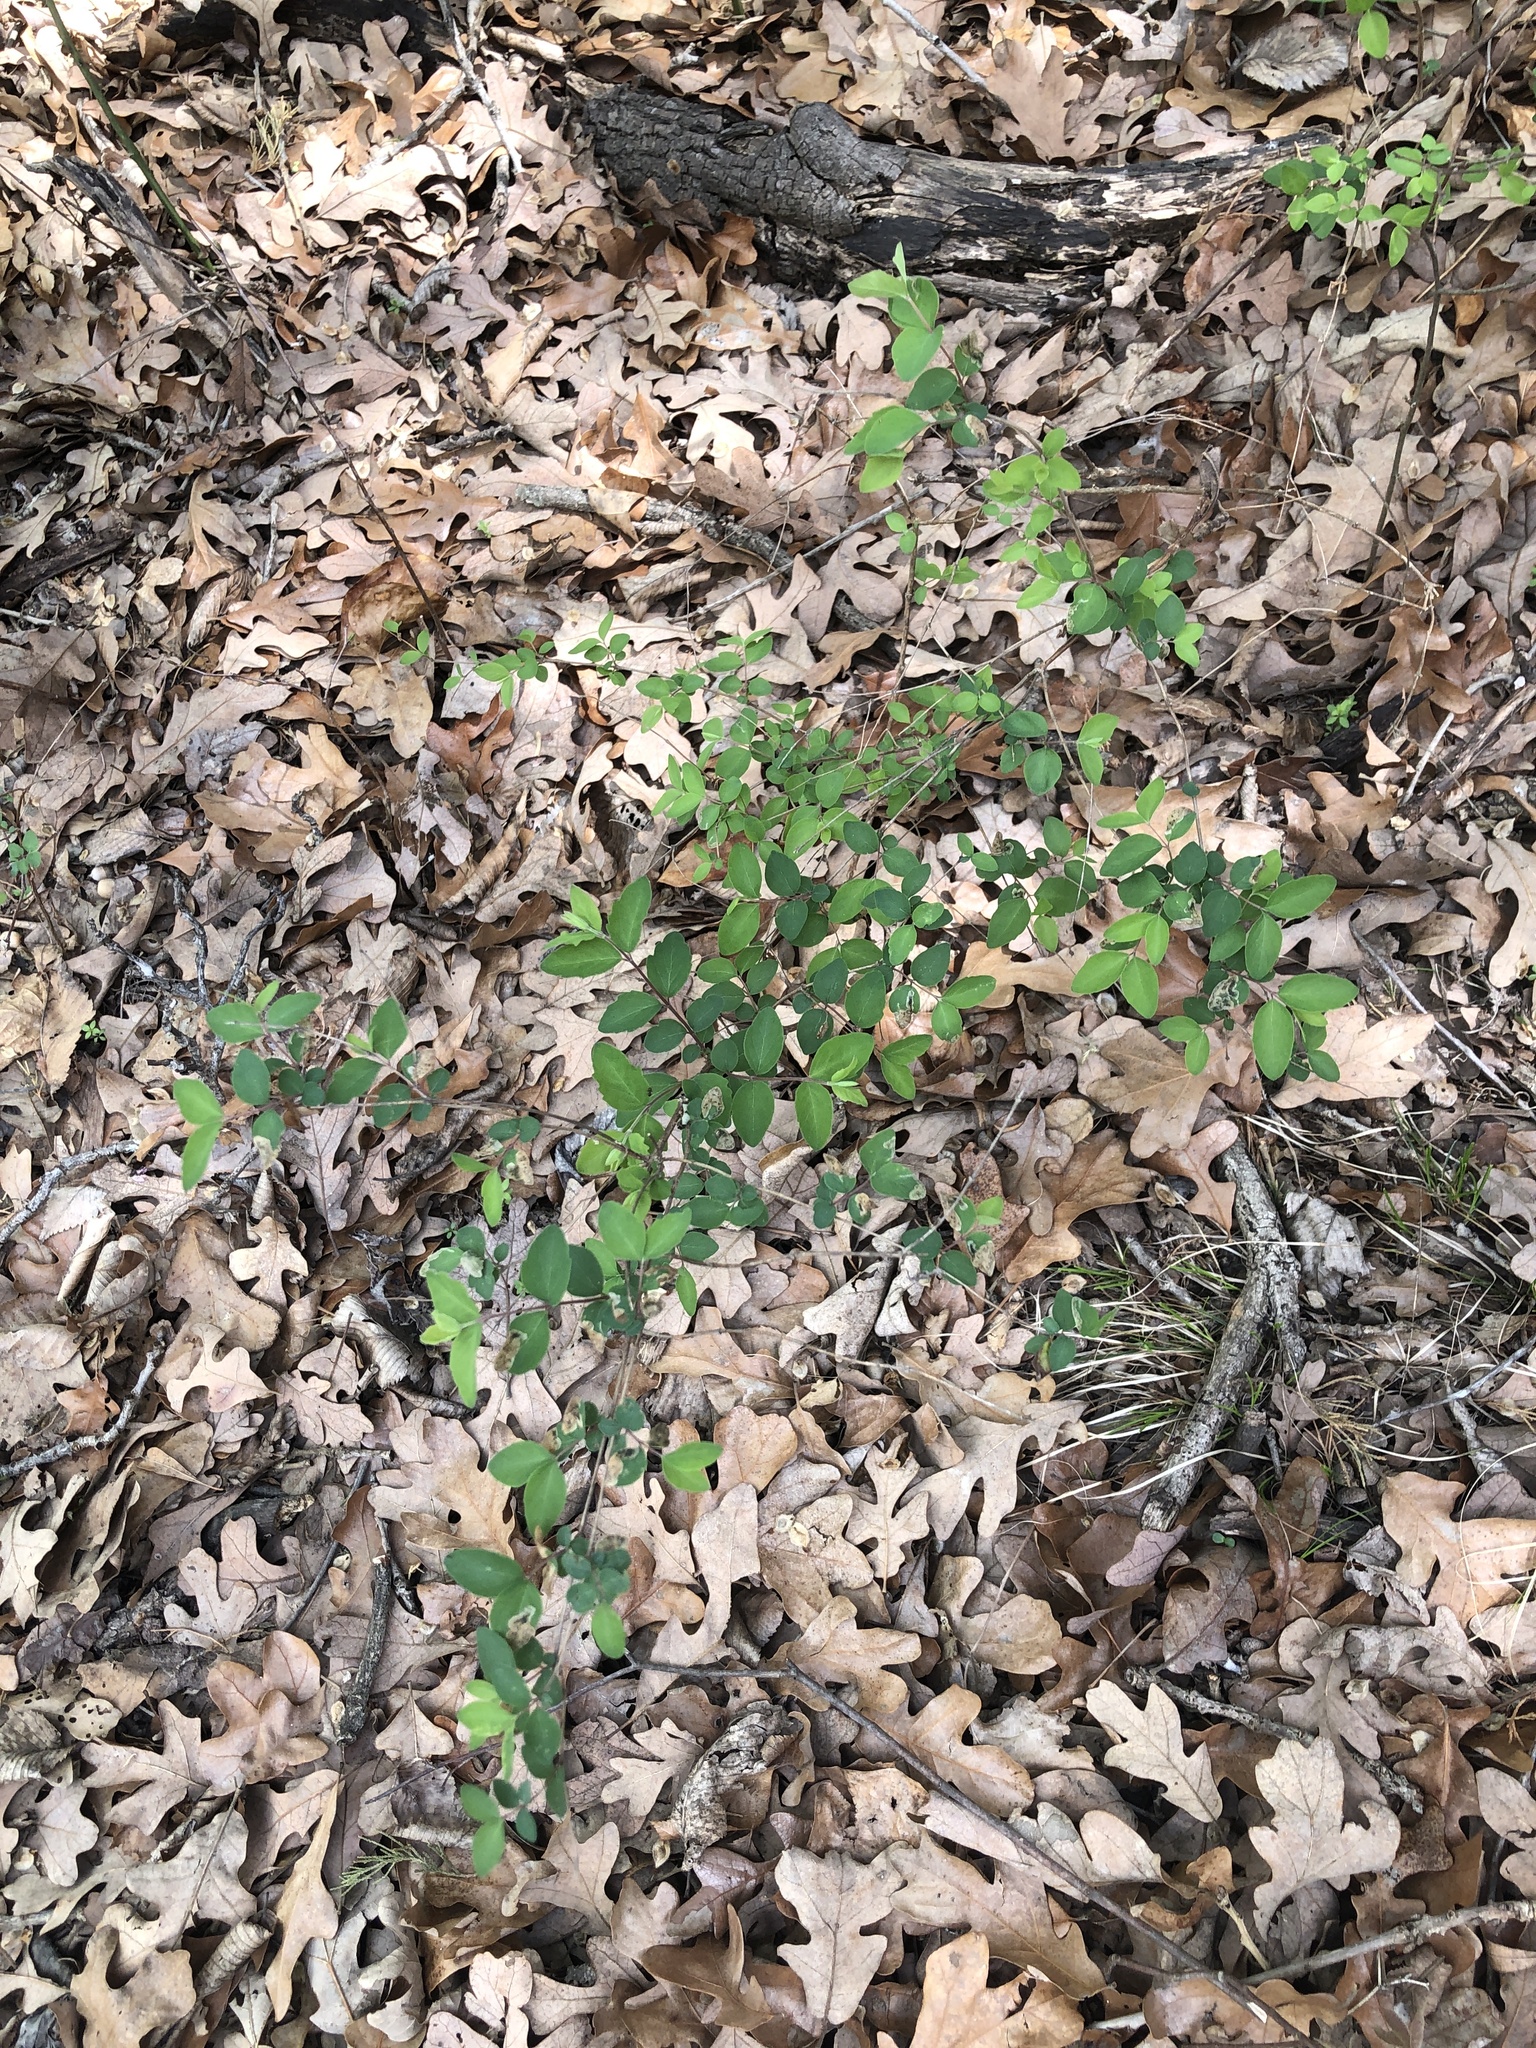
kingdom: Plantae
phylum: Tracheophyta
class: Magnoliopsida
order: Dipsacales
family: Caprifoliaceae
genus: Symphoricarpos
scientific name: Symphoricarpos orbiculatus
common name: Coralberry
